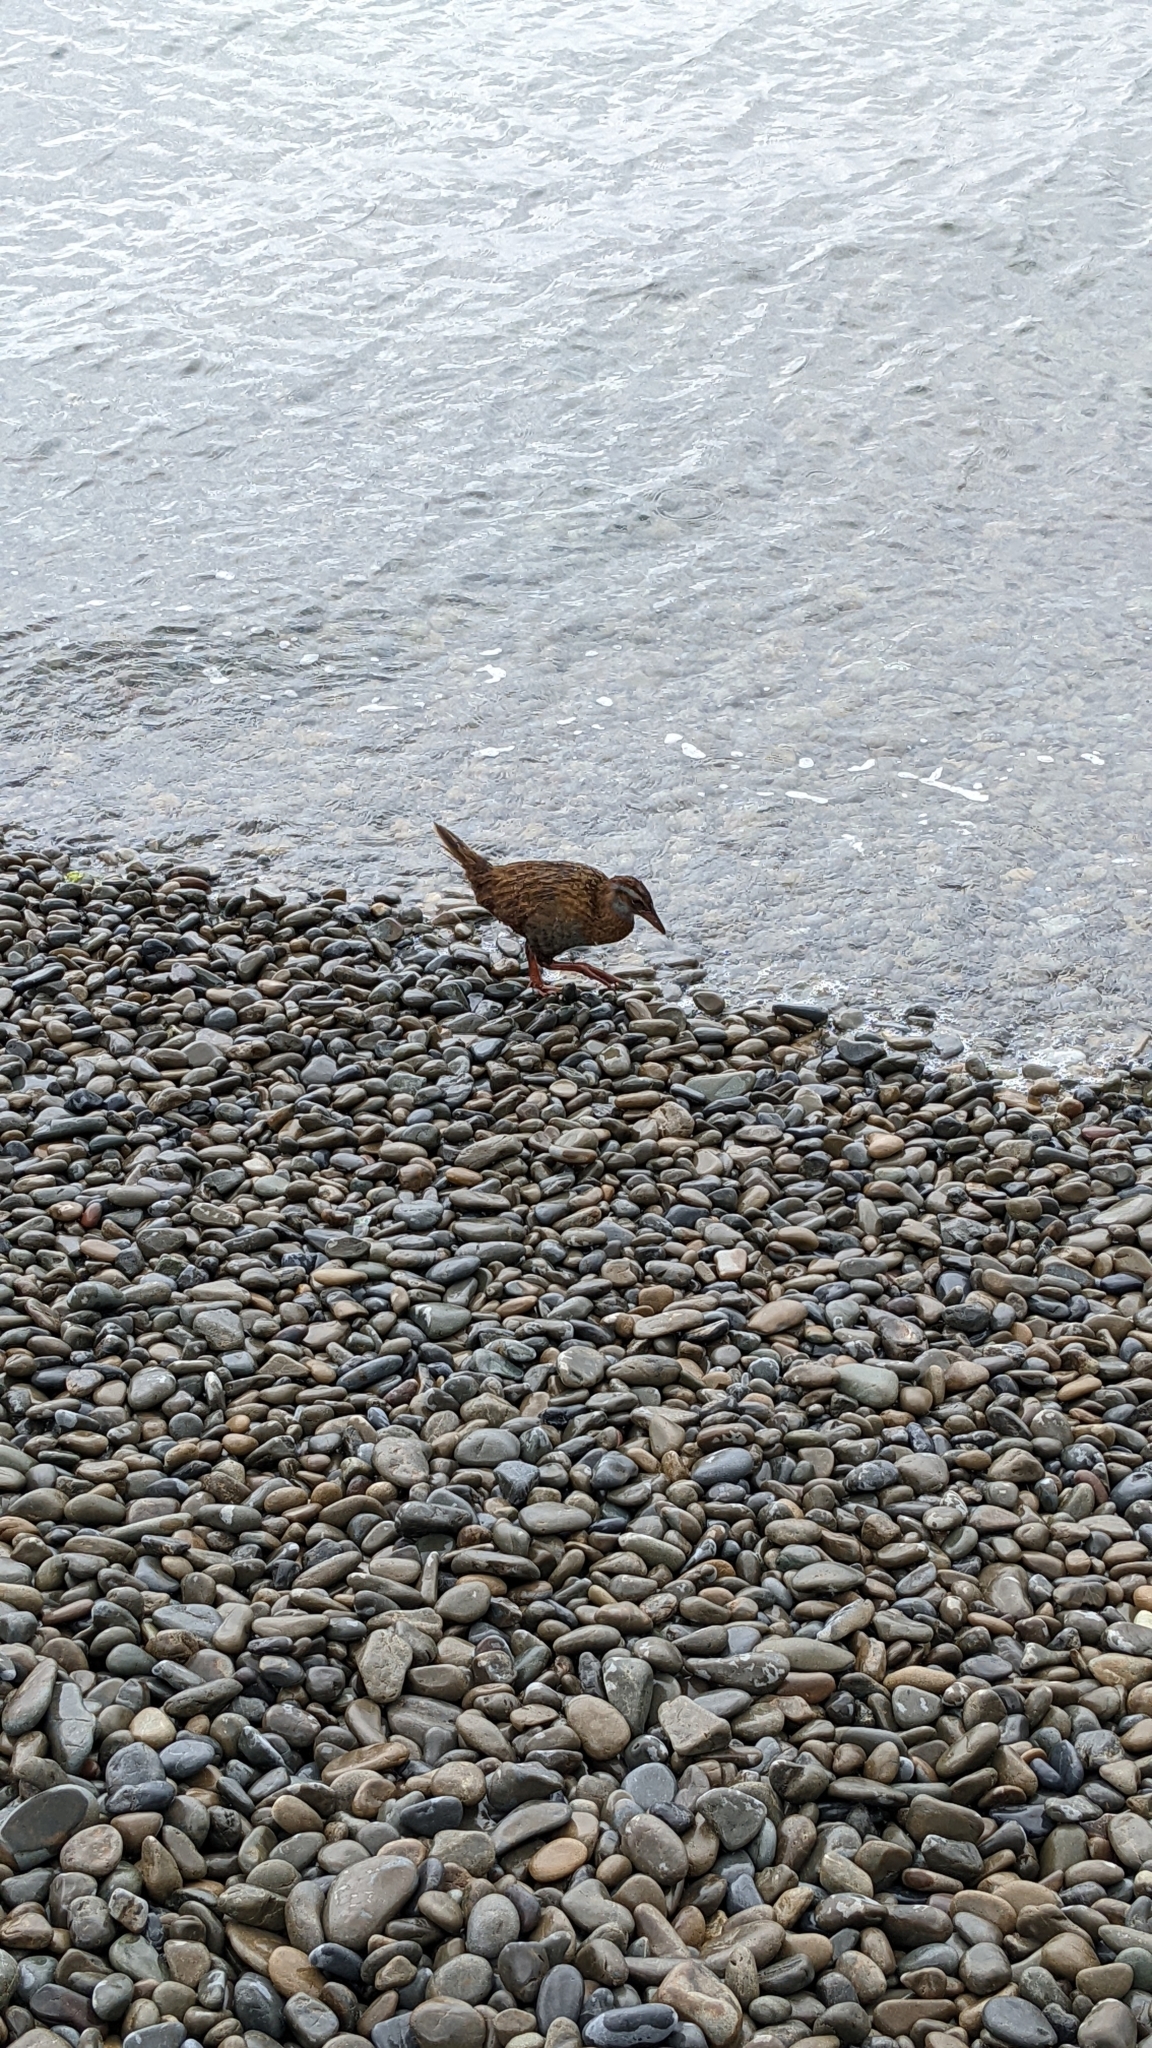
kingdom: Animalia
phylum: Chordata
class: Aves
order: Gruiformes
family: Rallidae
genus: Gallirallus
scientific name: Gallirallus
